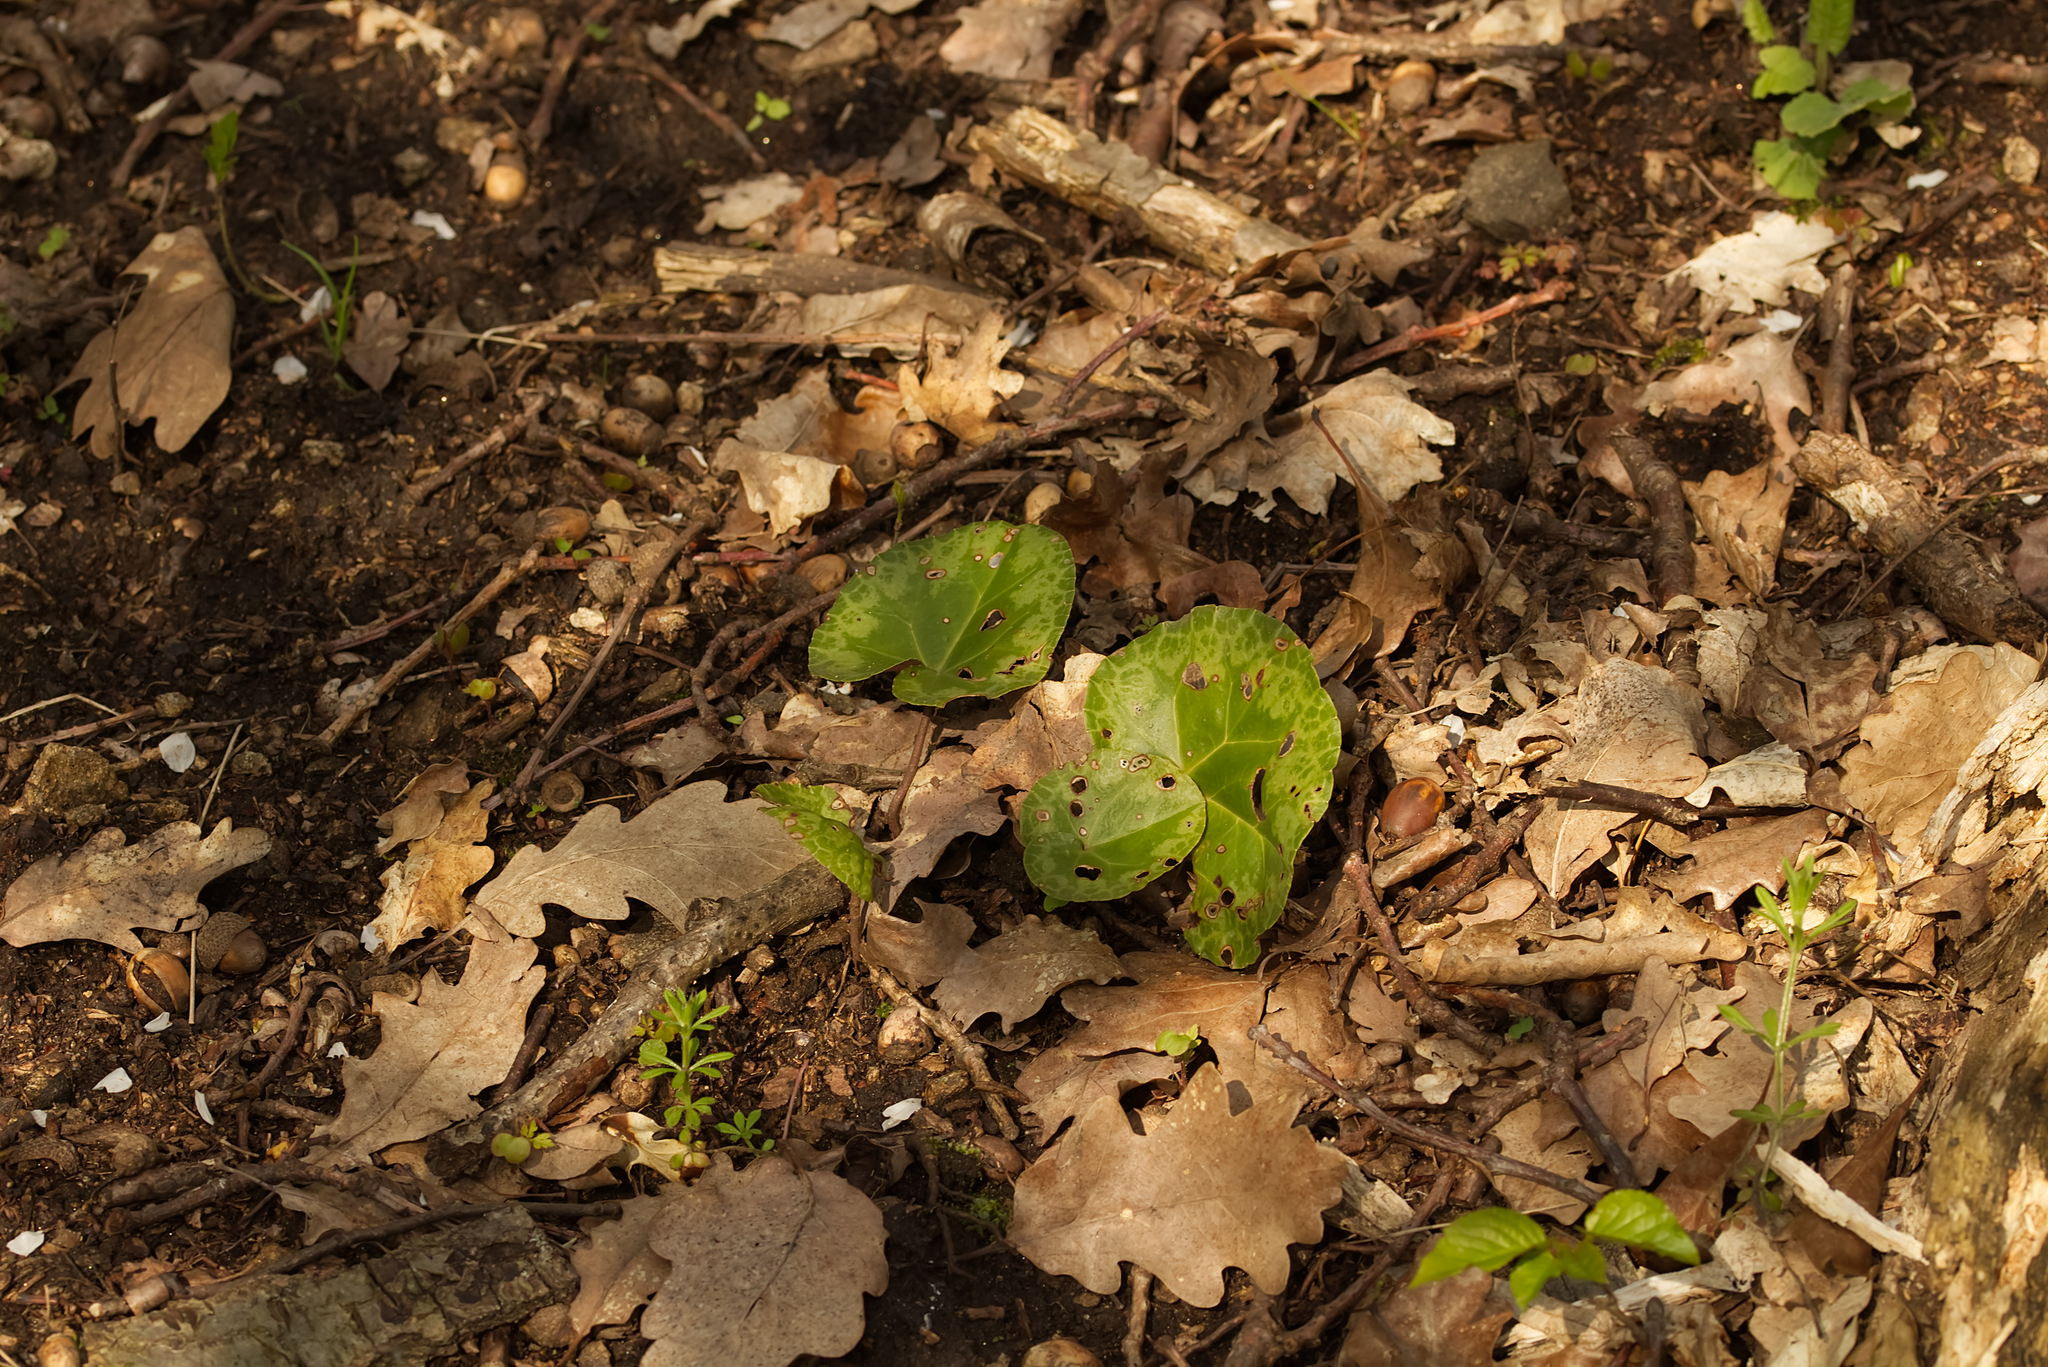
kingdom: Plantae
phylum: Tracheophyta
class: Magnoliopsida
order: Ericales
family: Primulaceae
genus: Cyclamen
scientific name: Cyclamen purpurascens
